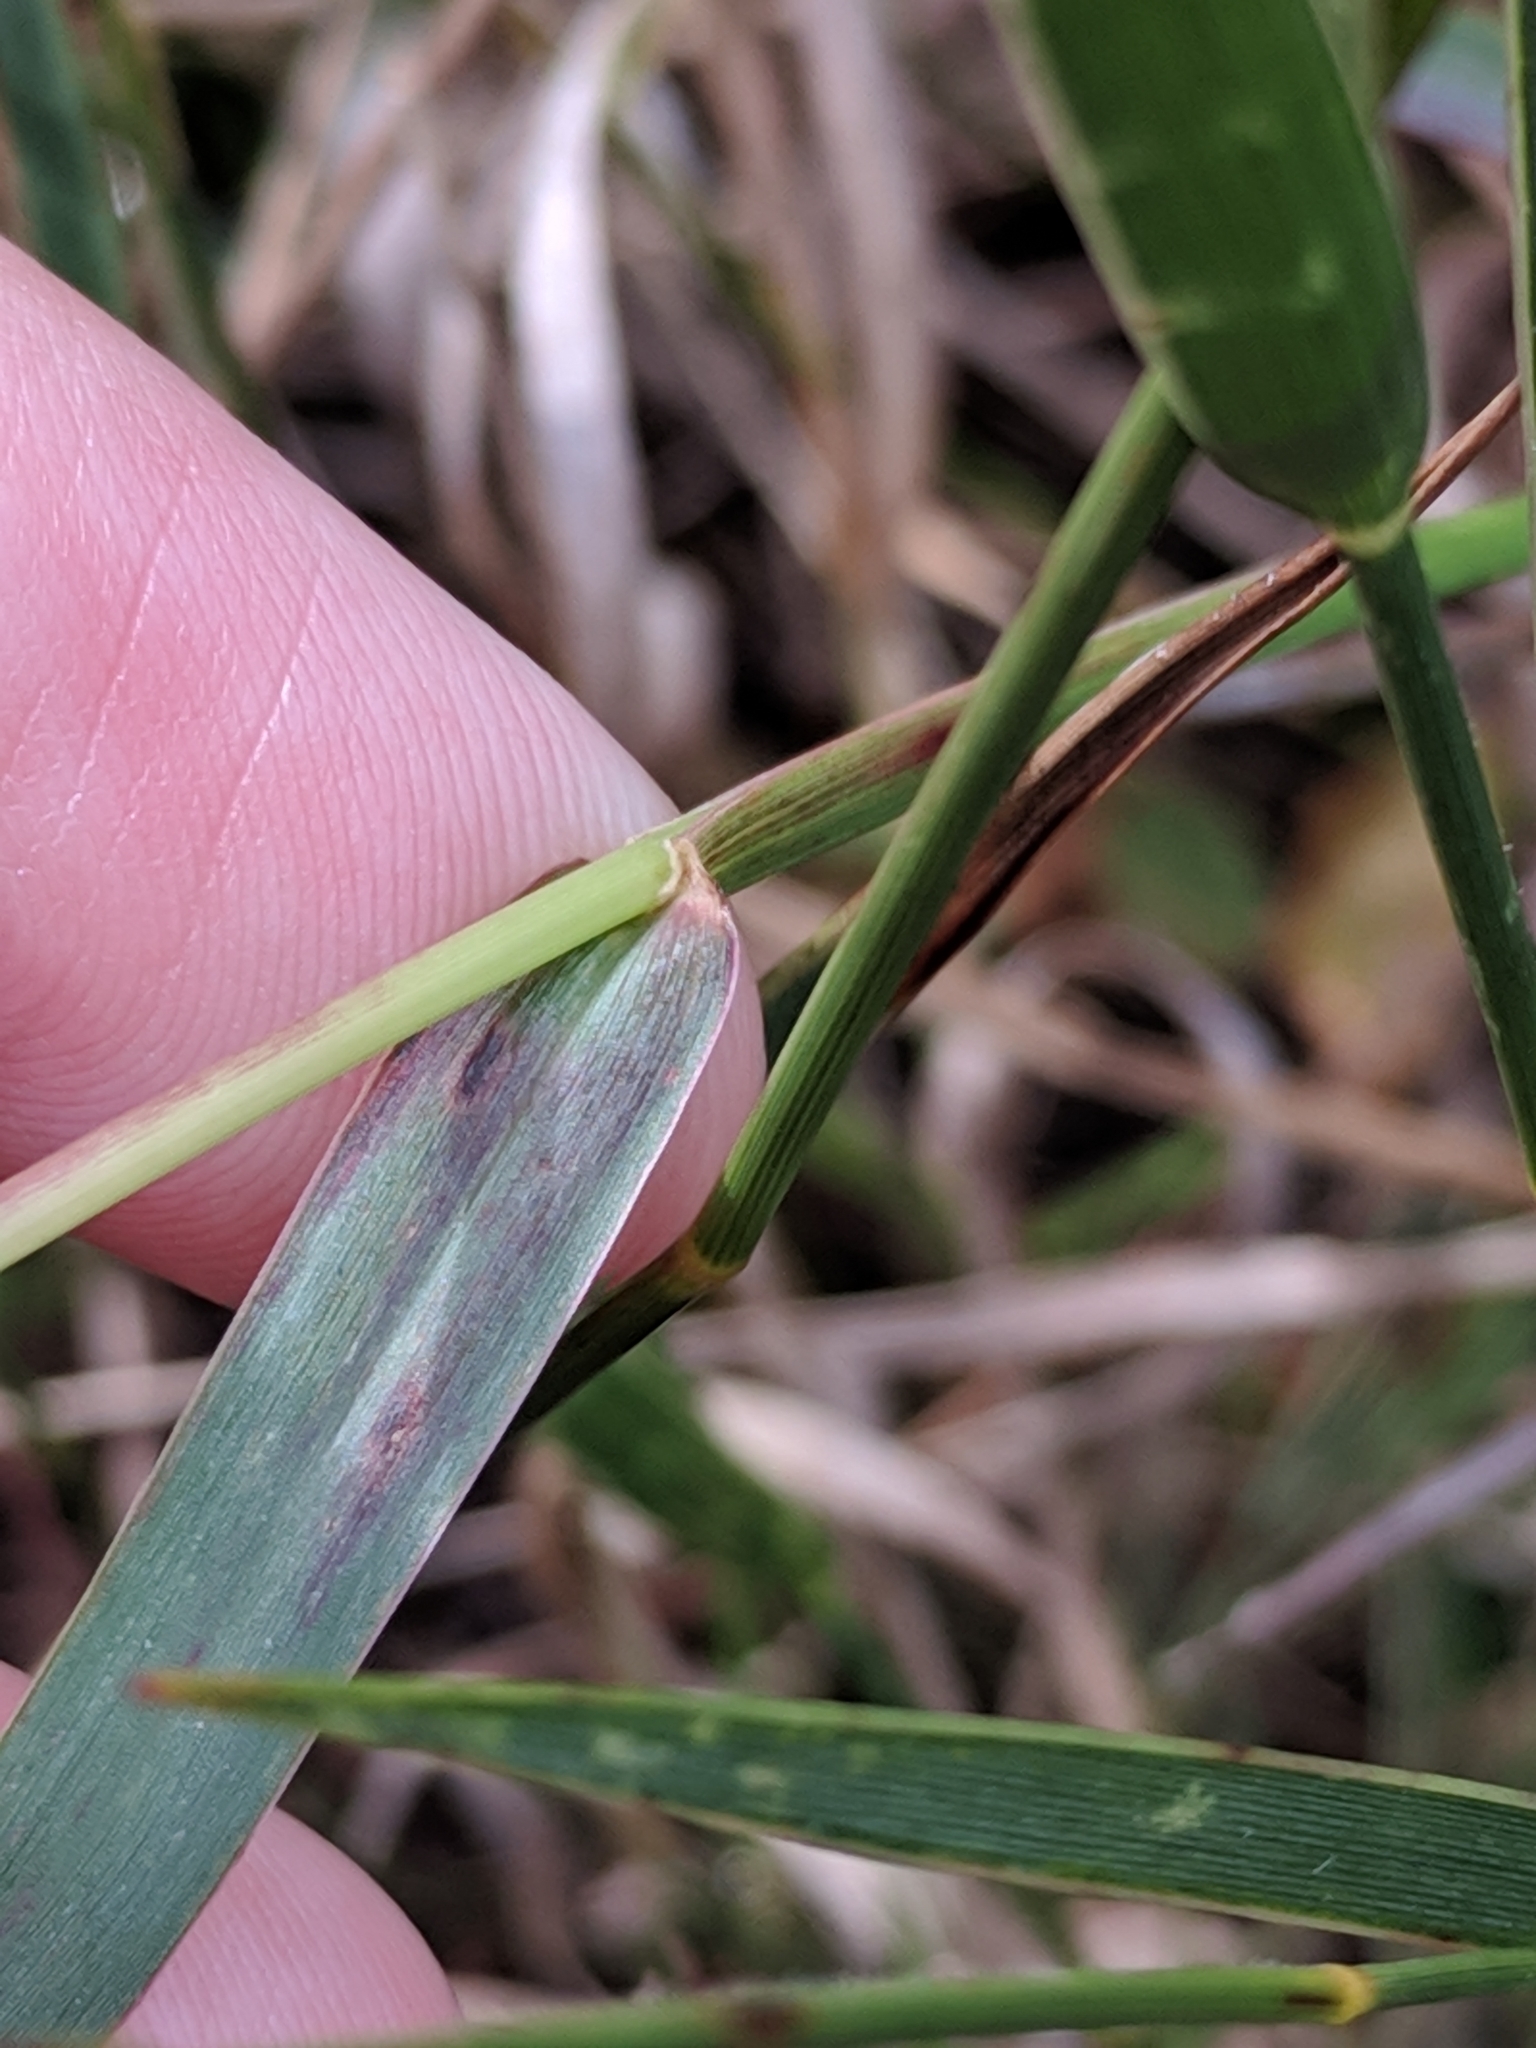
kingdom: Plantae
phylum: Tracheophyta
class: Liliopsida
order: Poales
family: Poaceae
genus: Setaria
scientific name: Setaria parviflora
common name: Knotroot bristle-grass
